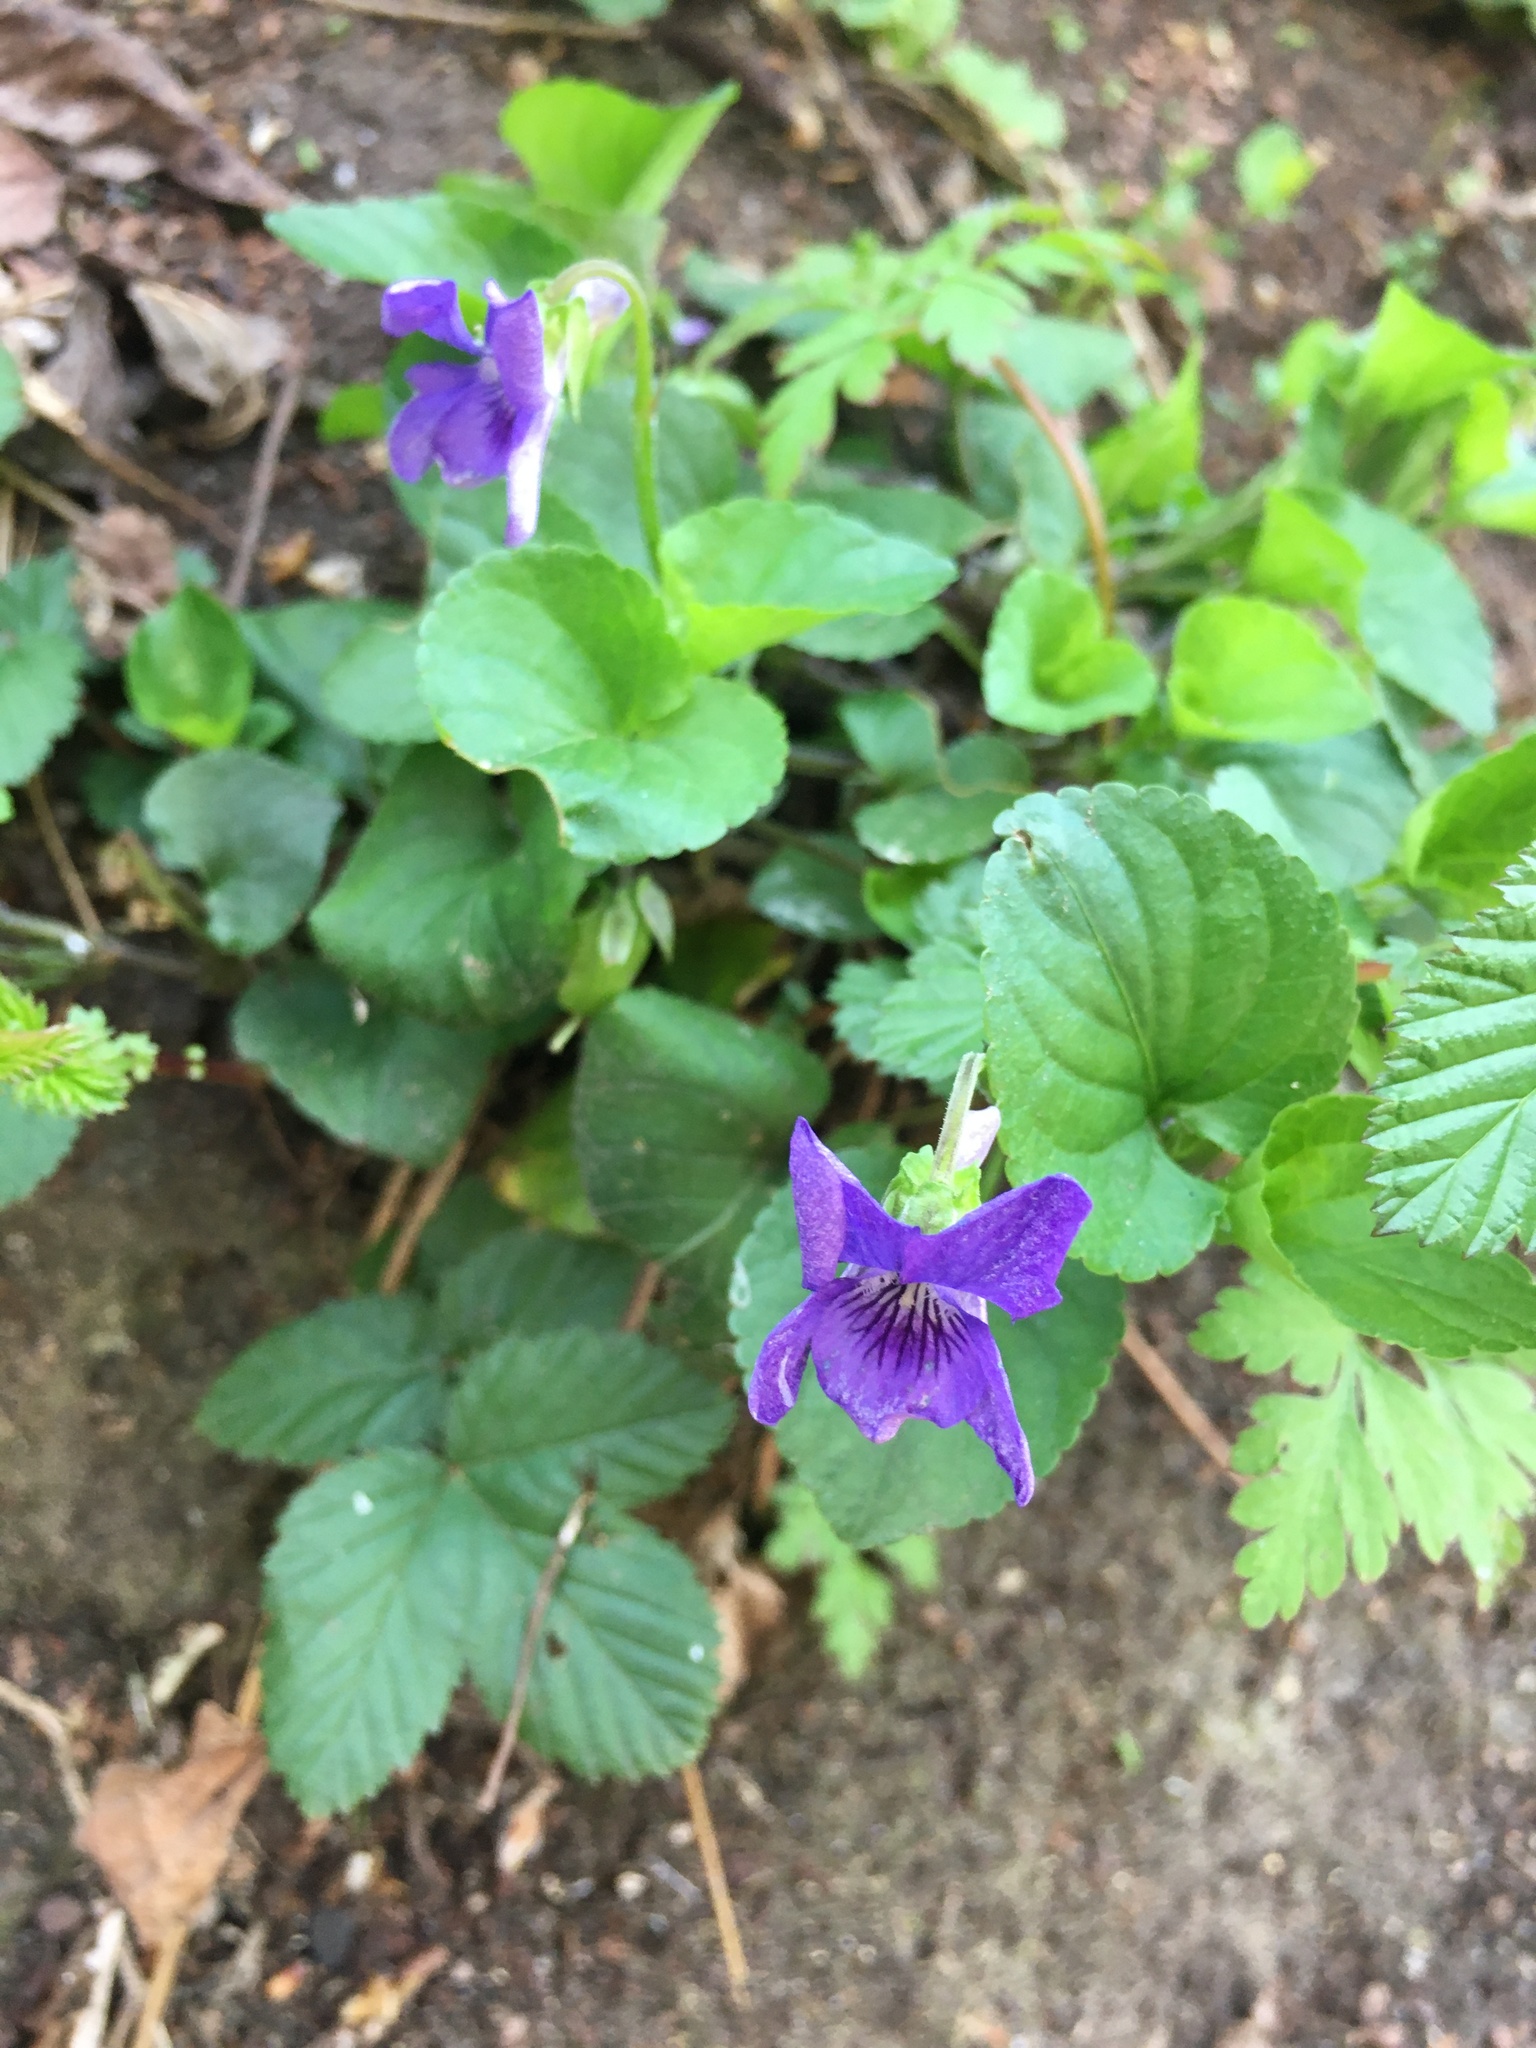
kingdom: Plantae
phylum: Tracheophyta
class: Magnoliopsida
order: Malpighiales
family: Violaceae
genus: Viola
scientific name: Viola riviniana
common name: Common dog-violet
